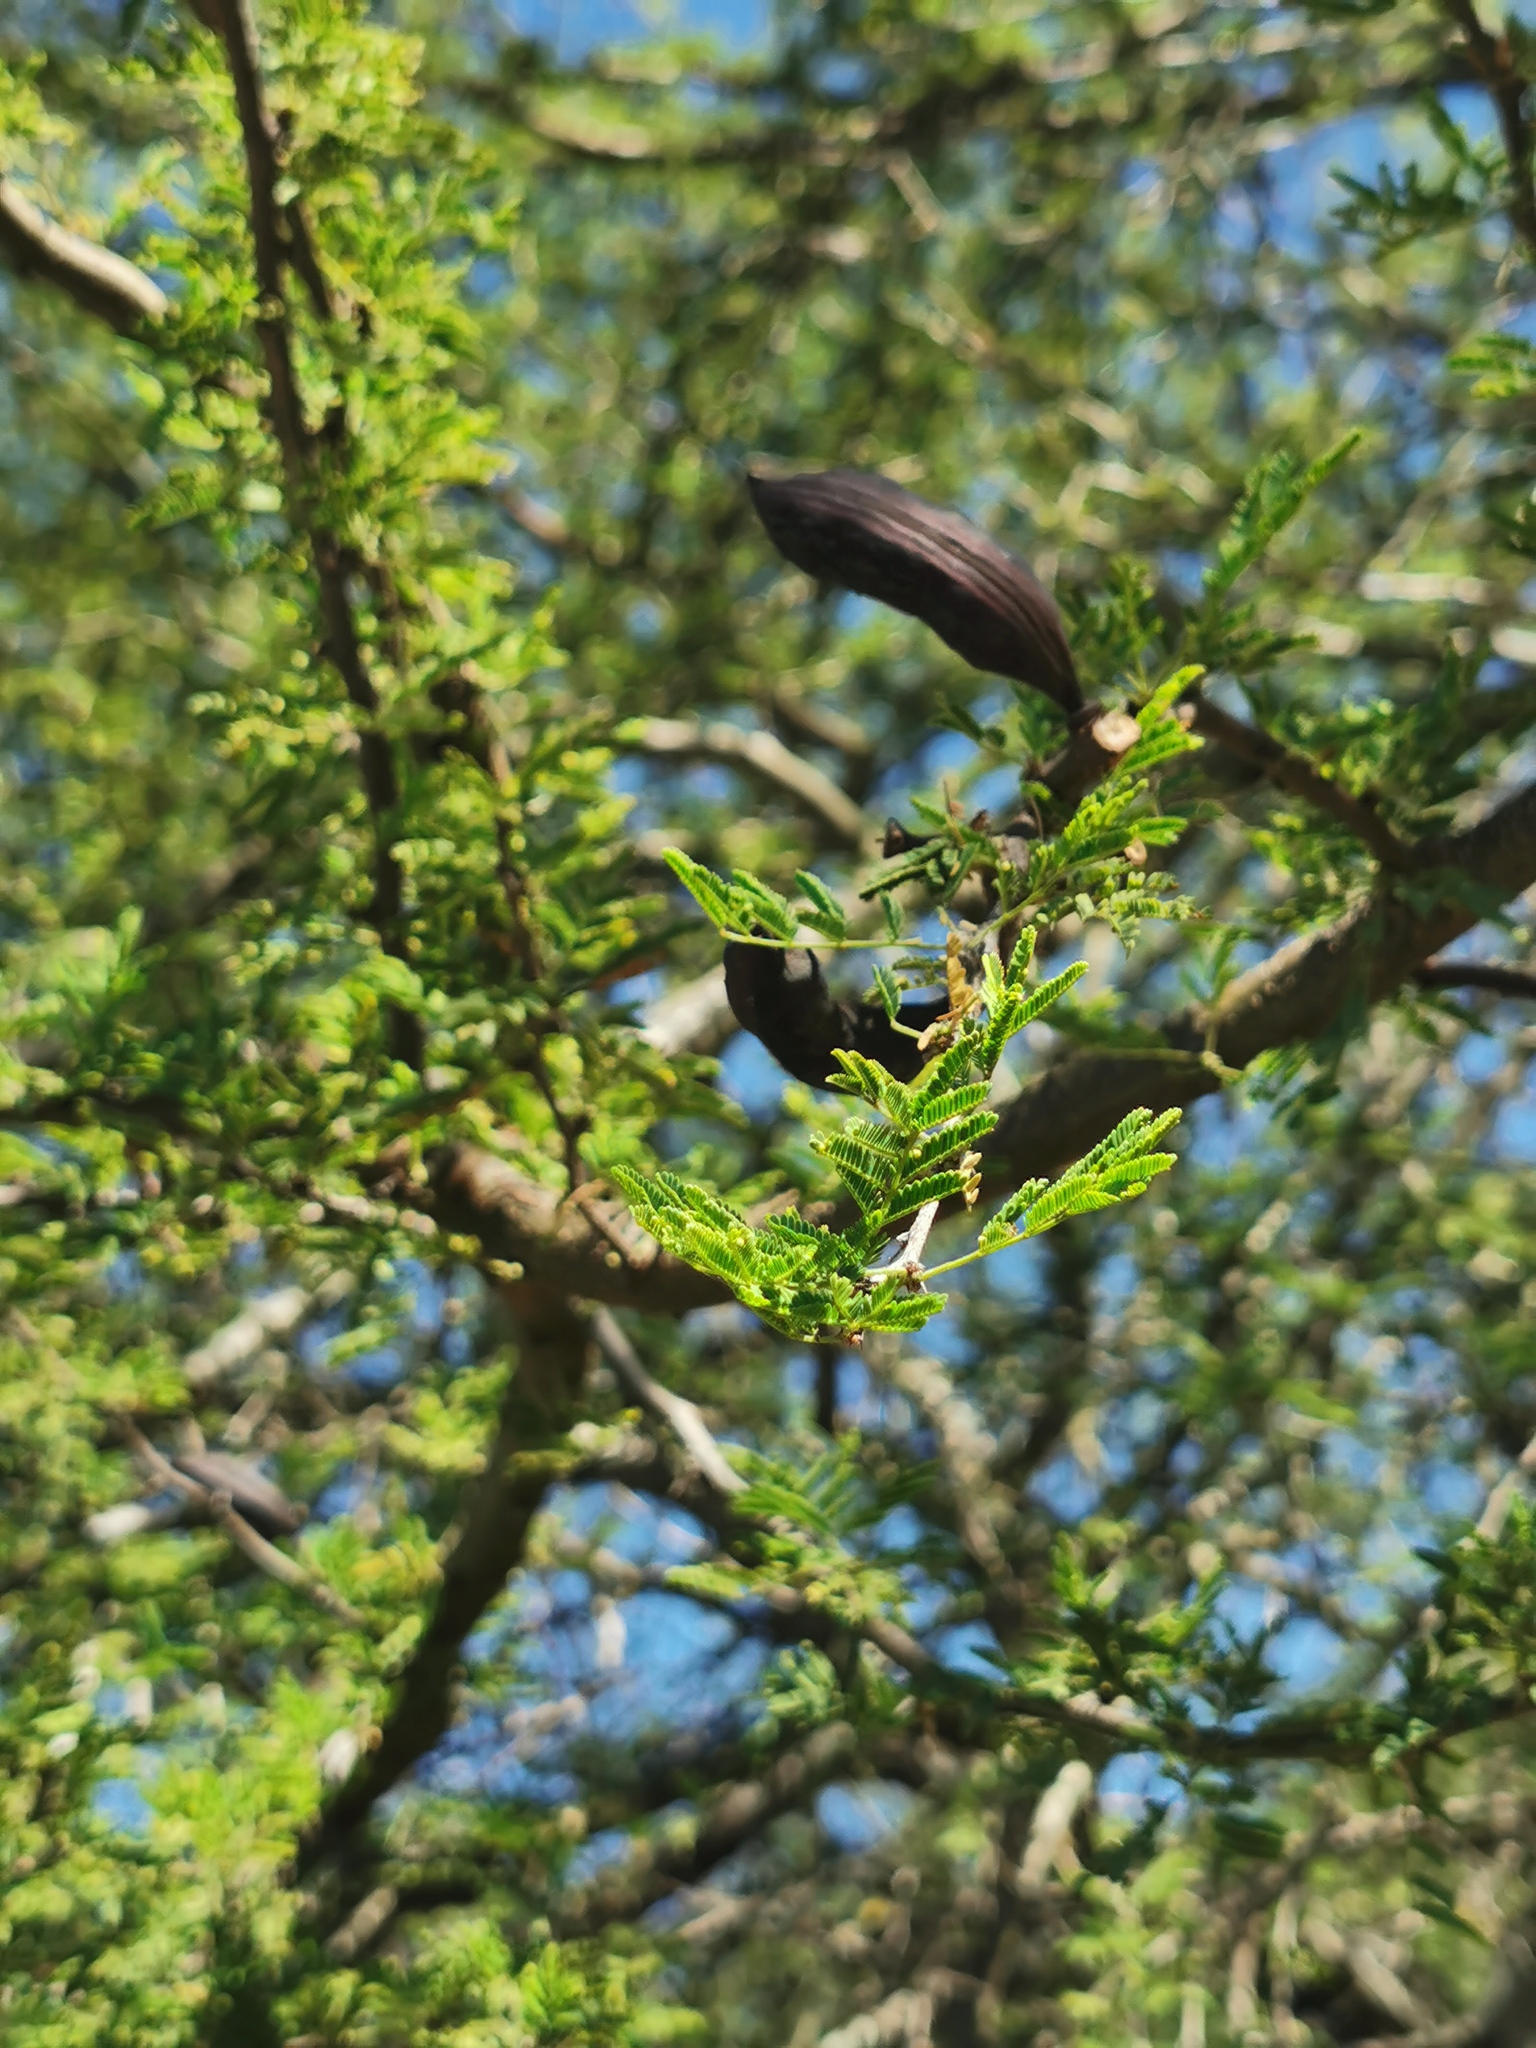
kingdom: Plantae
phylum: Tracheophyta
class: Magnoliopsida
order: Fabales
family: Fabaceae
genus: Vachellia
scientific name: Vachellia farnesiana
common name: Sweet acacia
